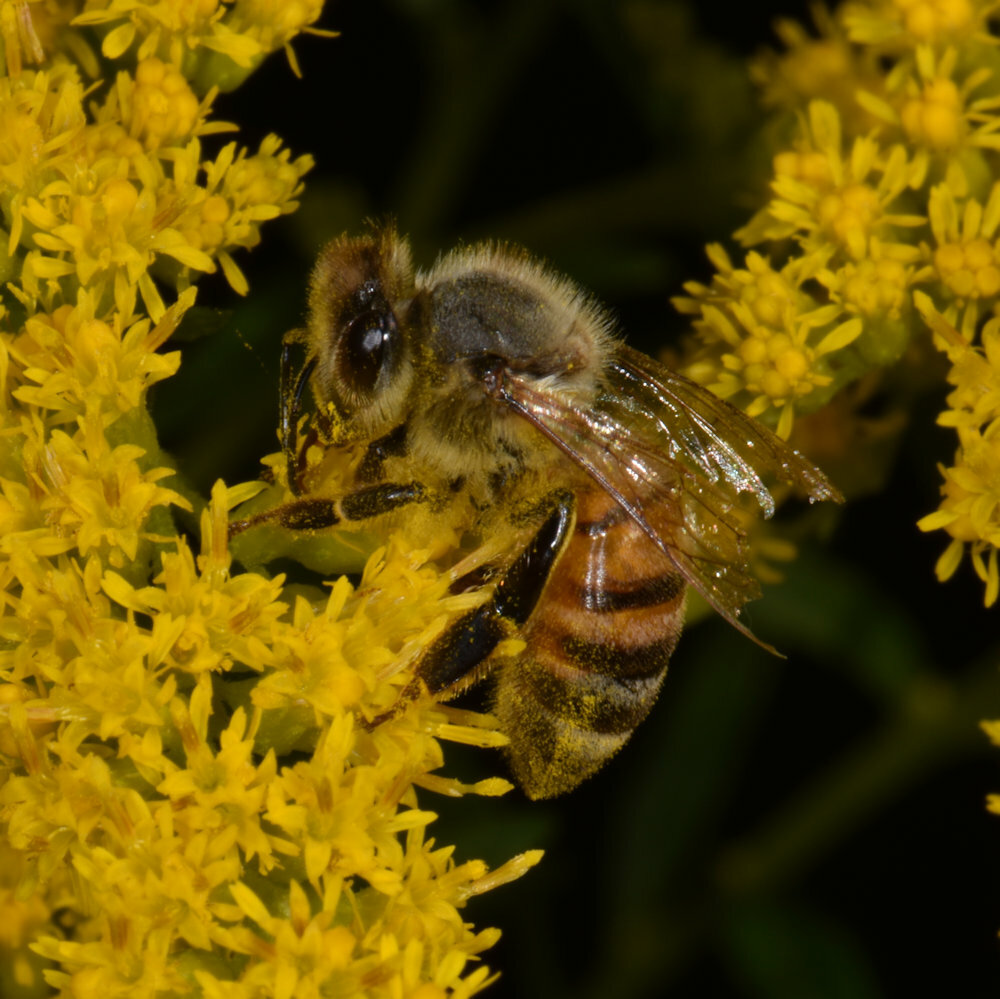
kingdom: Animalia
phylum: Arthropoda
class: Insecta
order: Hymenoptera
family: Apidae
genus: Apis
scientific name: Apis mellifera
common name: Honey bee
